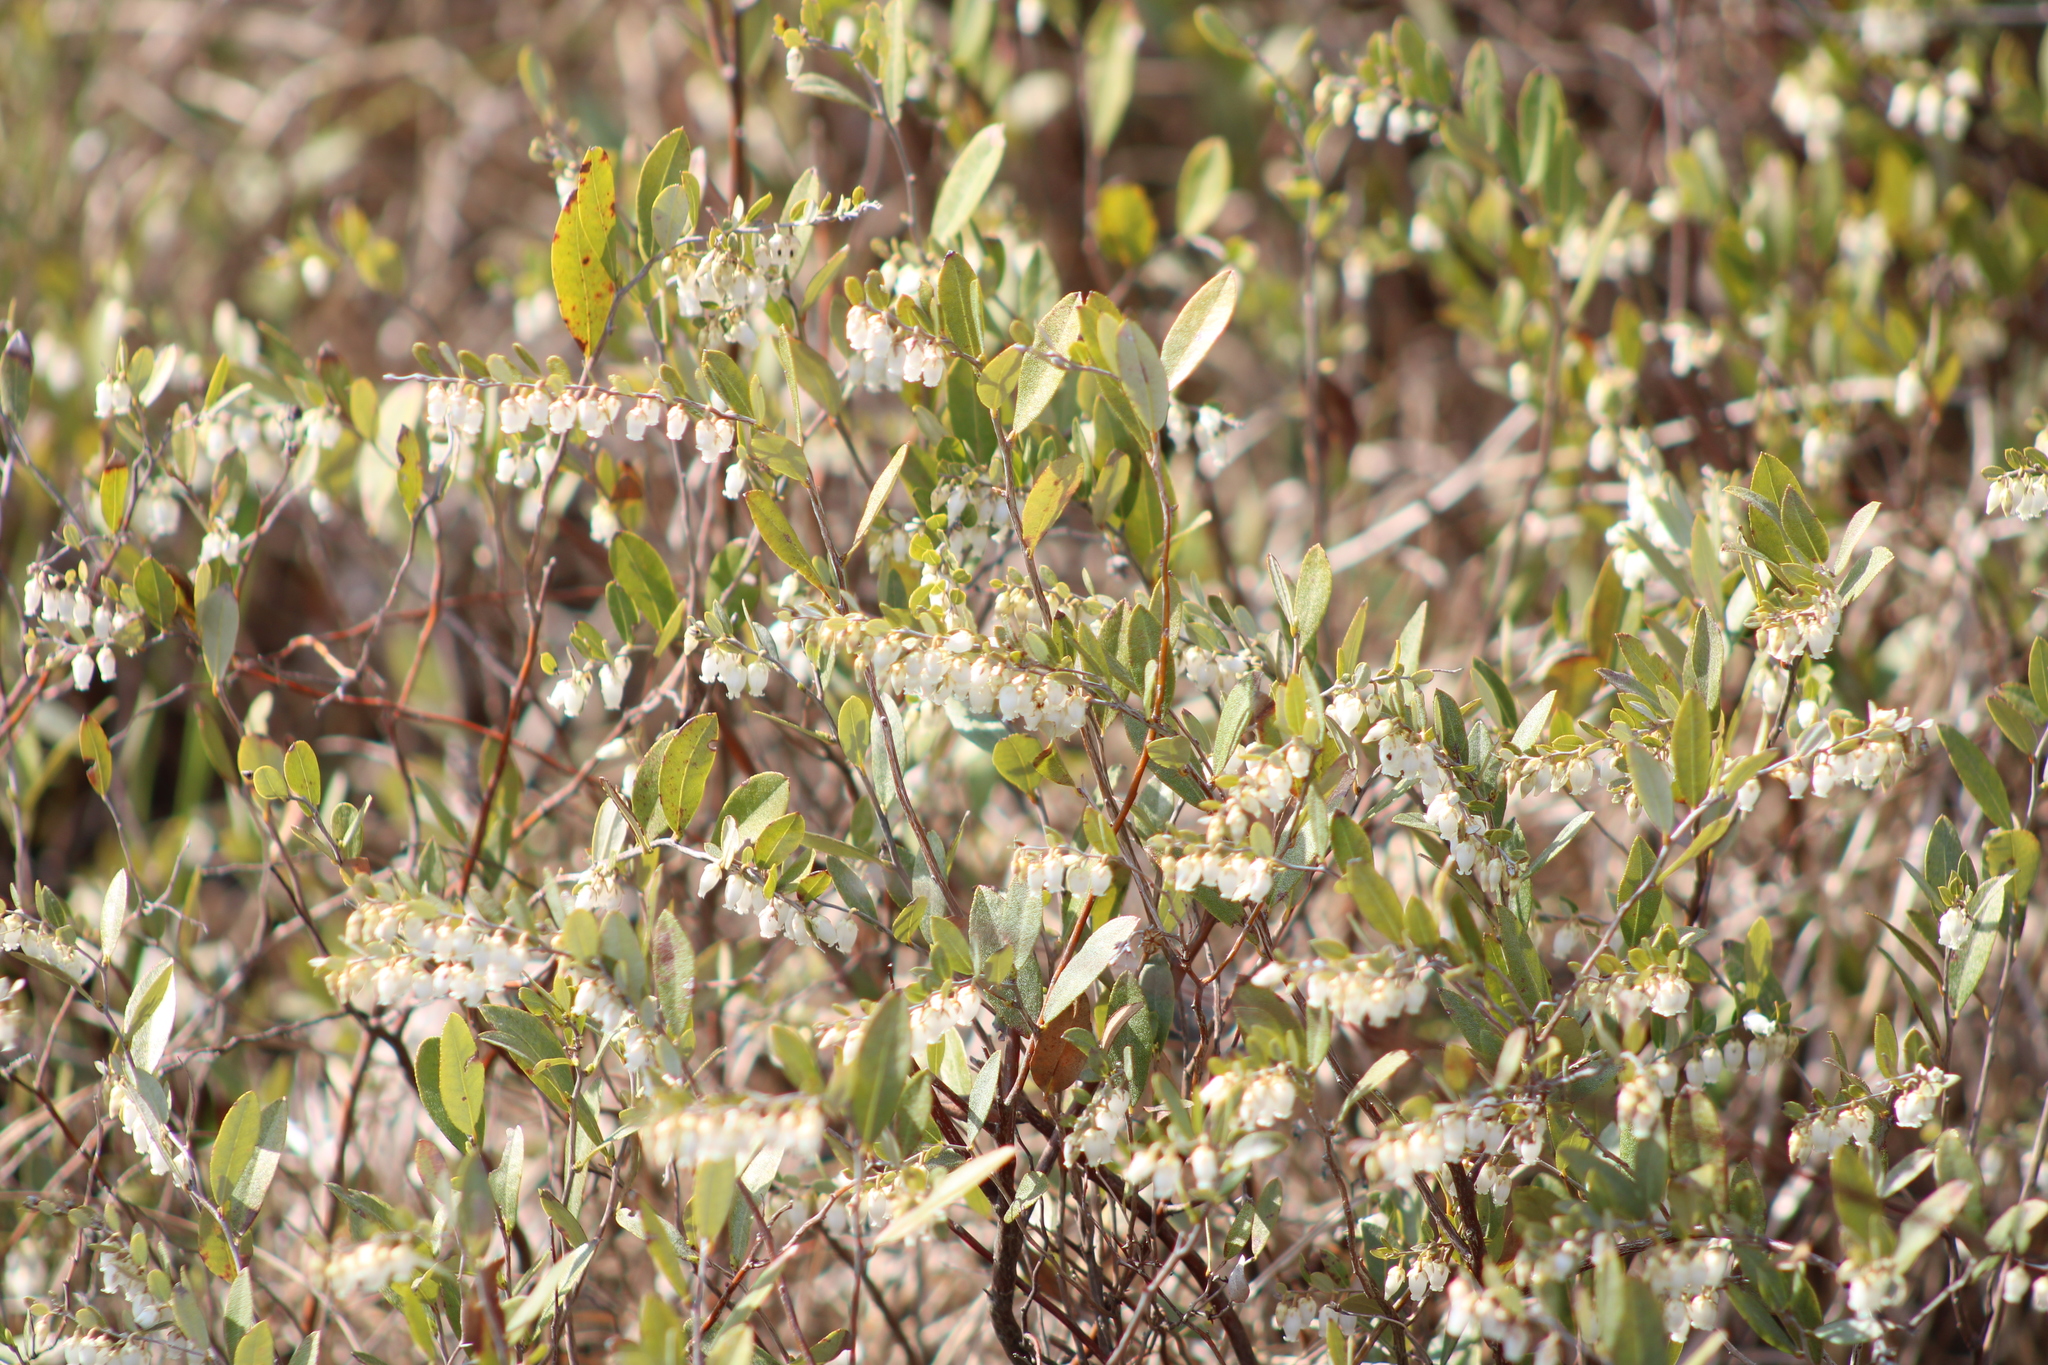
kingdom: Plantae
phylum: Tracheophyta
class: Magnoliopsida
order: Ericales
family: Ericaceae
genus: Chamaedaphne
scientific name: Chamaedaphne calyculata
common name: Leatherleaf
